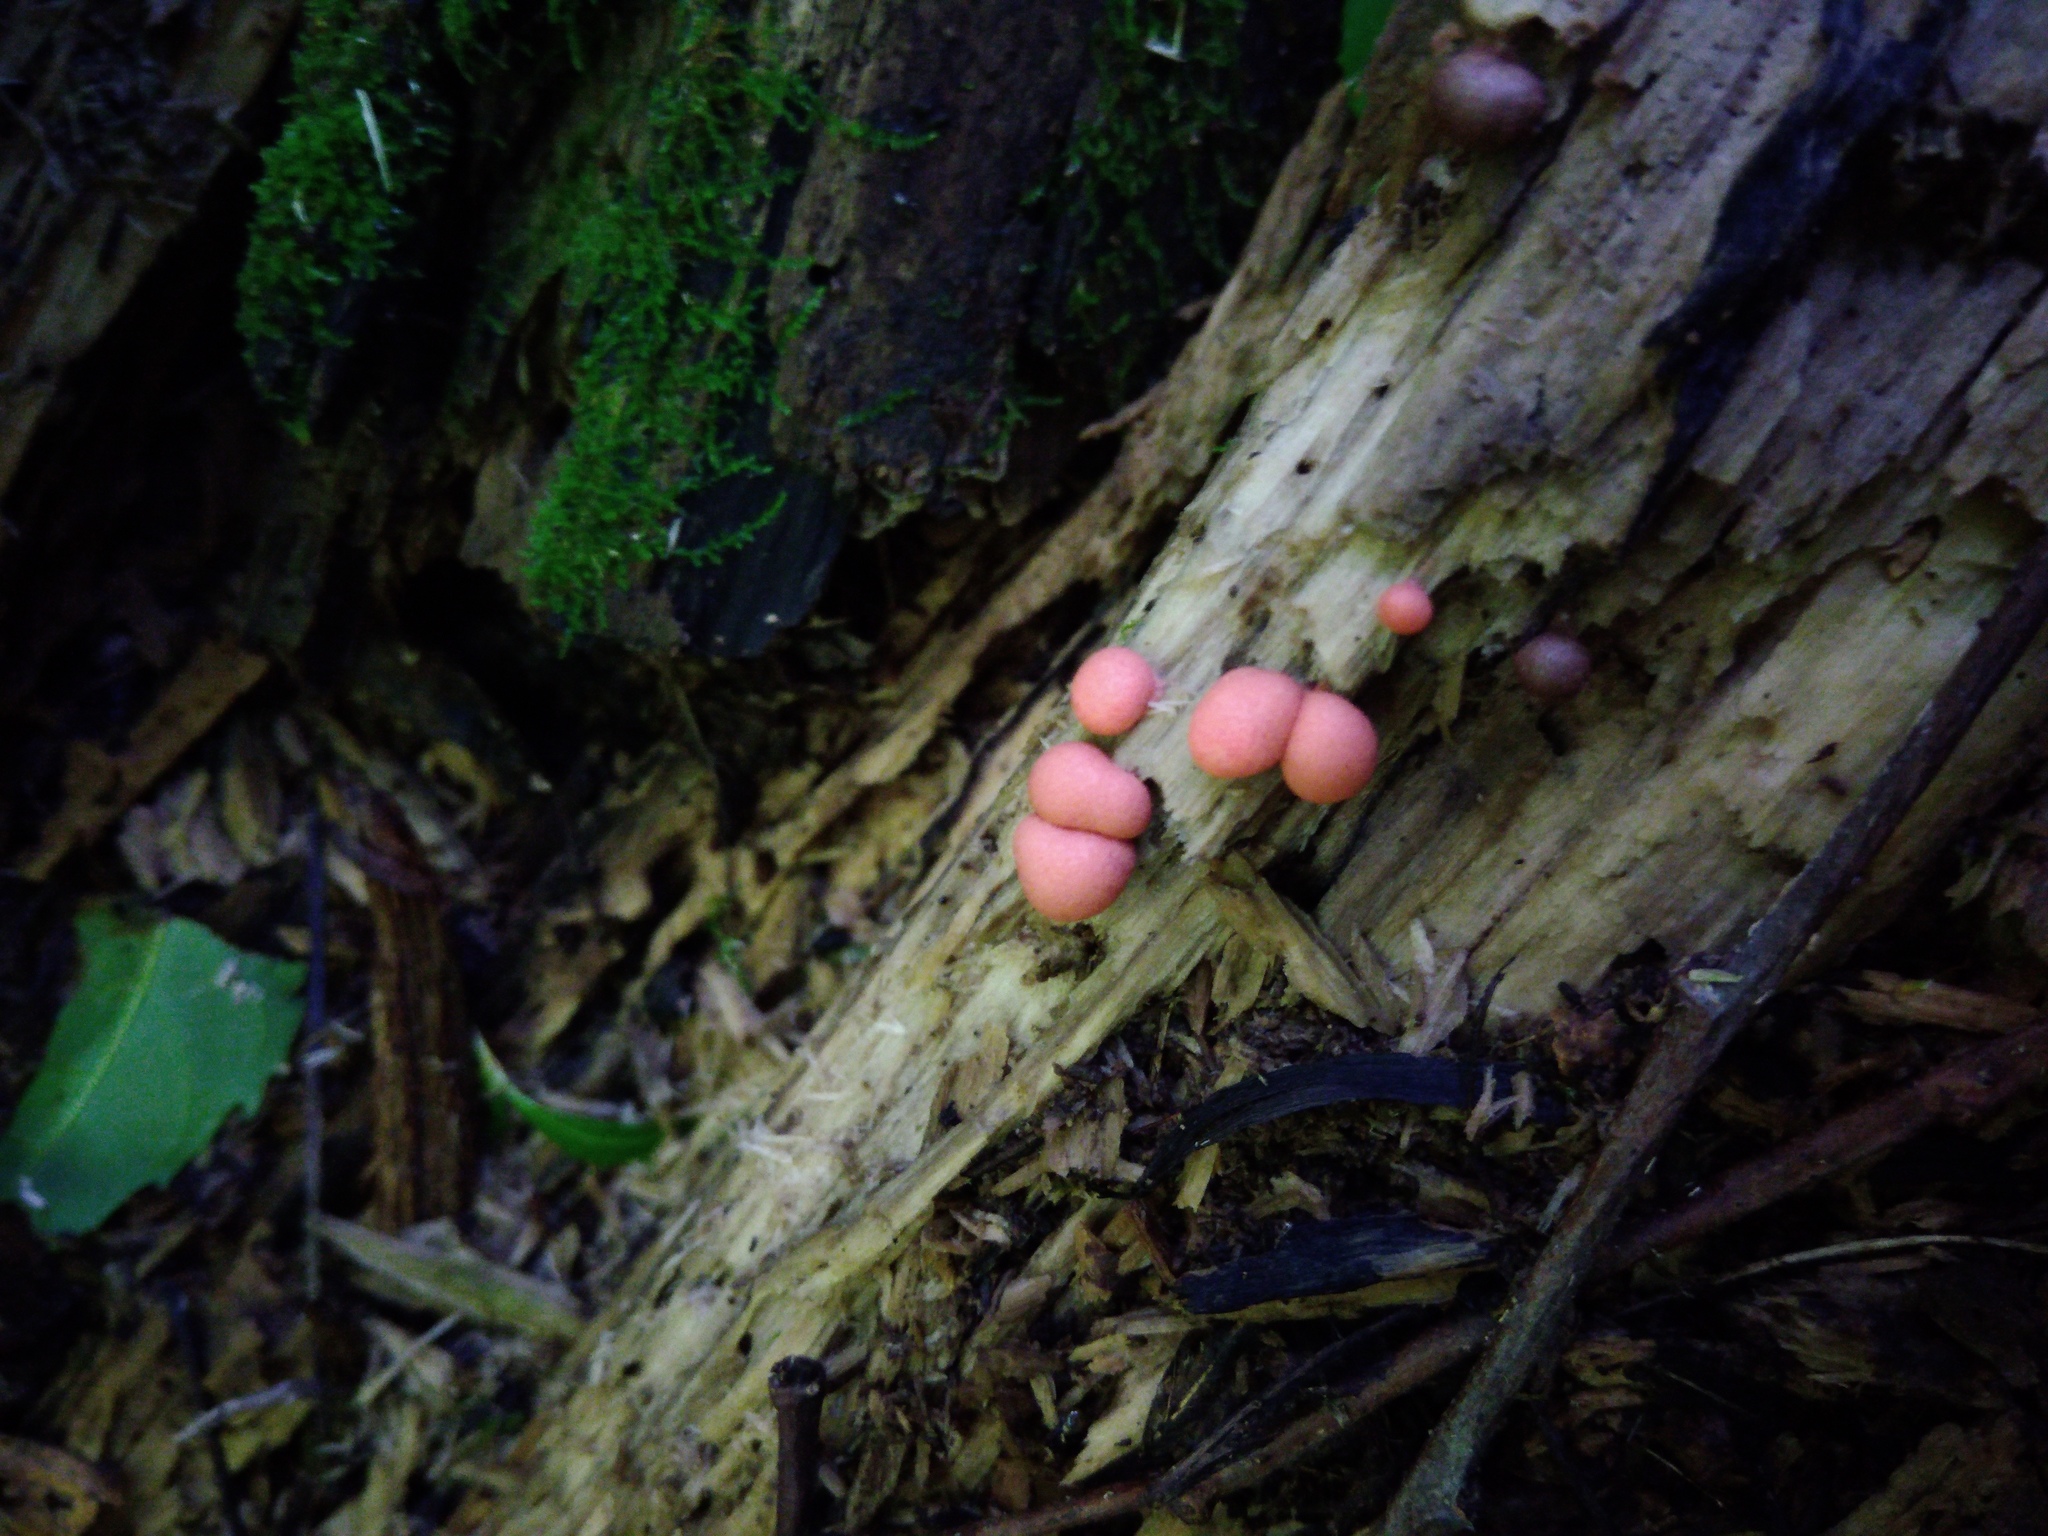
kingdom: Protozoa
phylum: Mycetozoa
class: Myxomycetes
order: Cribrariales
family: Tubiferaceae
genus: Lycogala
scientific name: Lycogala epidendrum
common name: Wolf's milk
